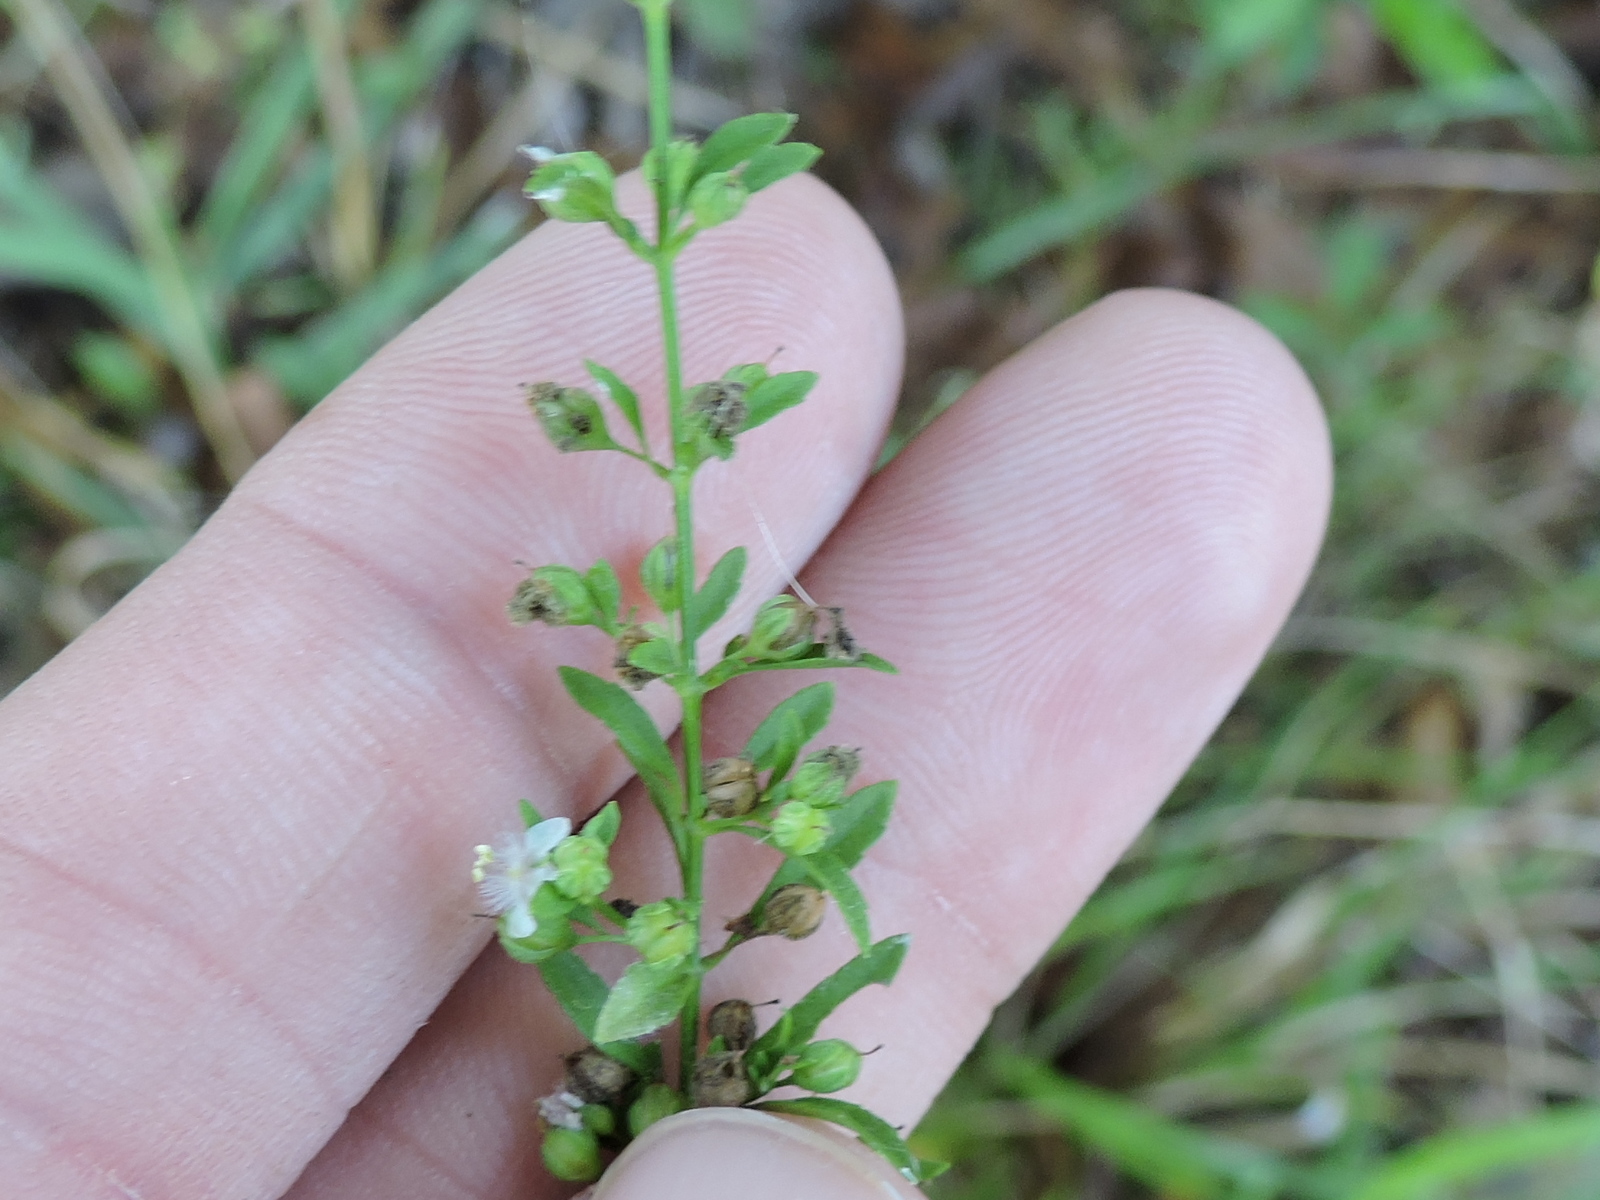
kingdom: Plantae
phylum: Tracheophyta
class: Magnoliopsida
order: Lamiales
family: Plantaginaceae
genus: Scoparia
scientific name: Scoparia dulcis
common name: Scoparia-weed
